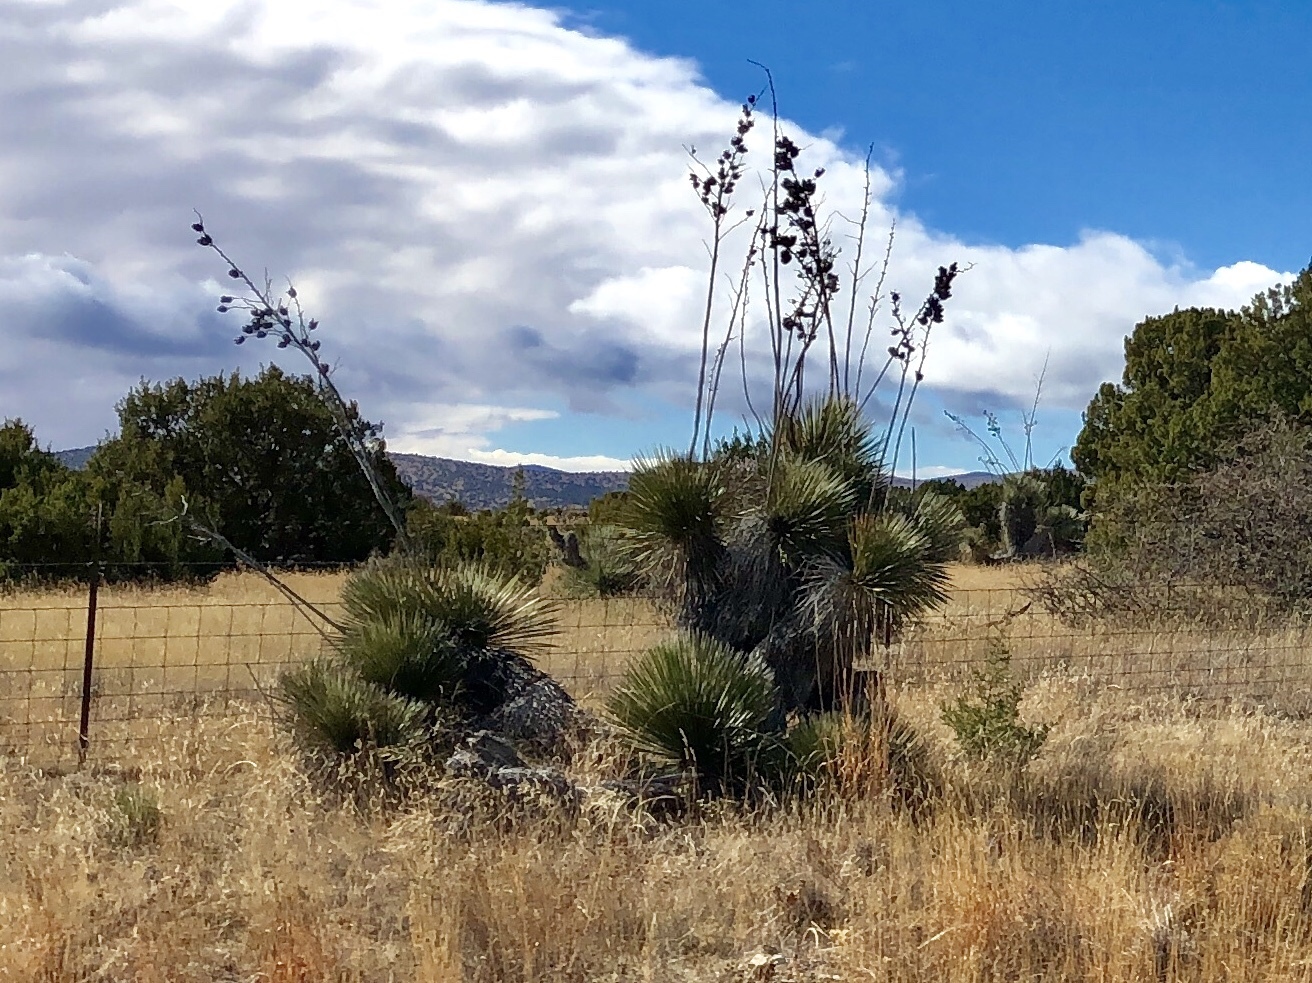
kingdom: Plantae
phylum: Tracheophyta
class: Liliopsida
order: Asparagales
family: Asparagaceae
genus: Yucca
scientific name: Yucca elata
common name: Palmella
